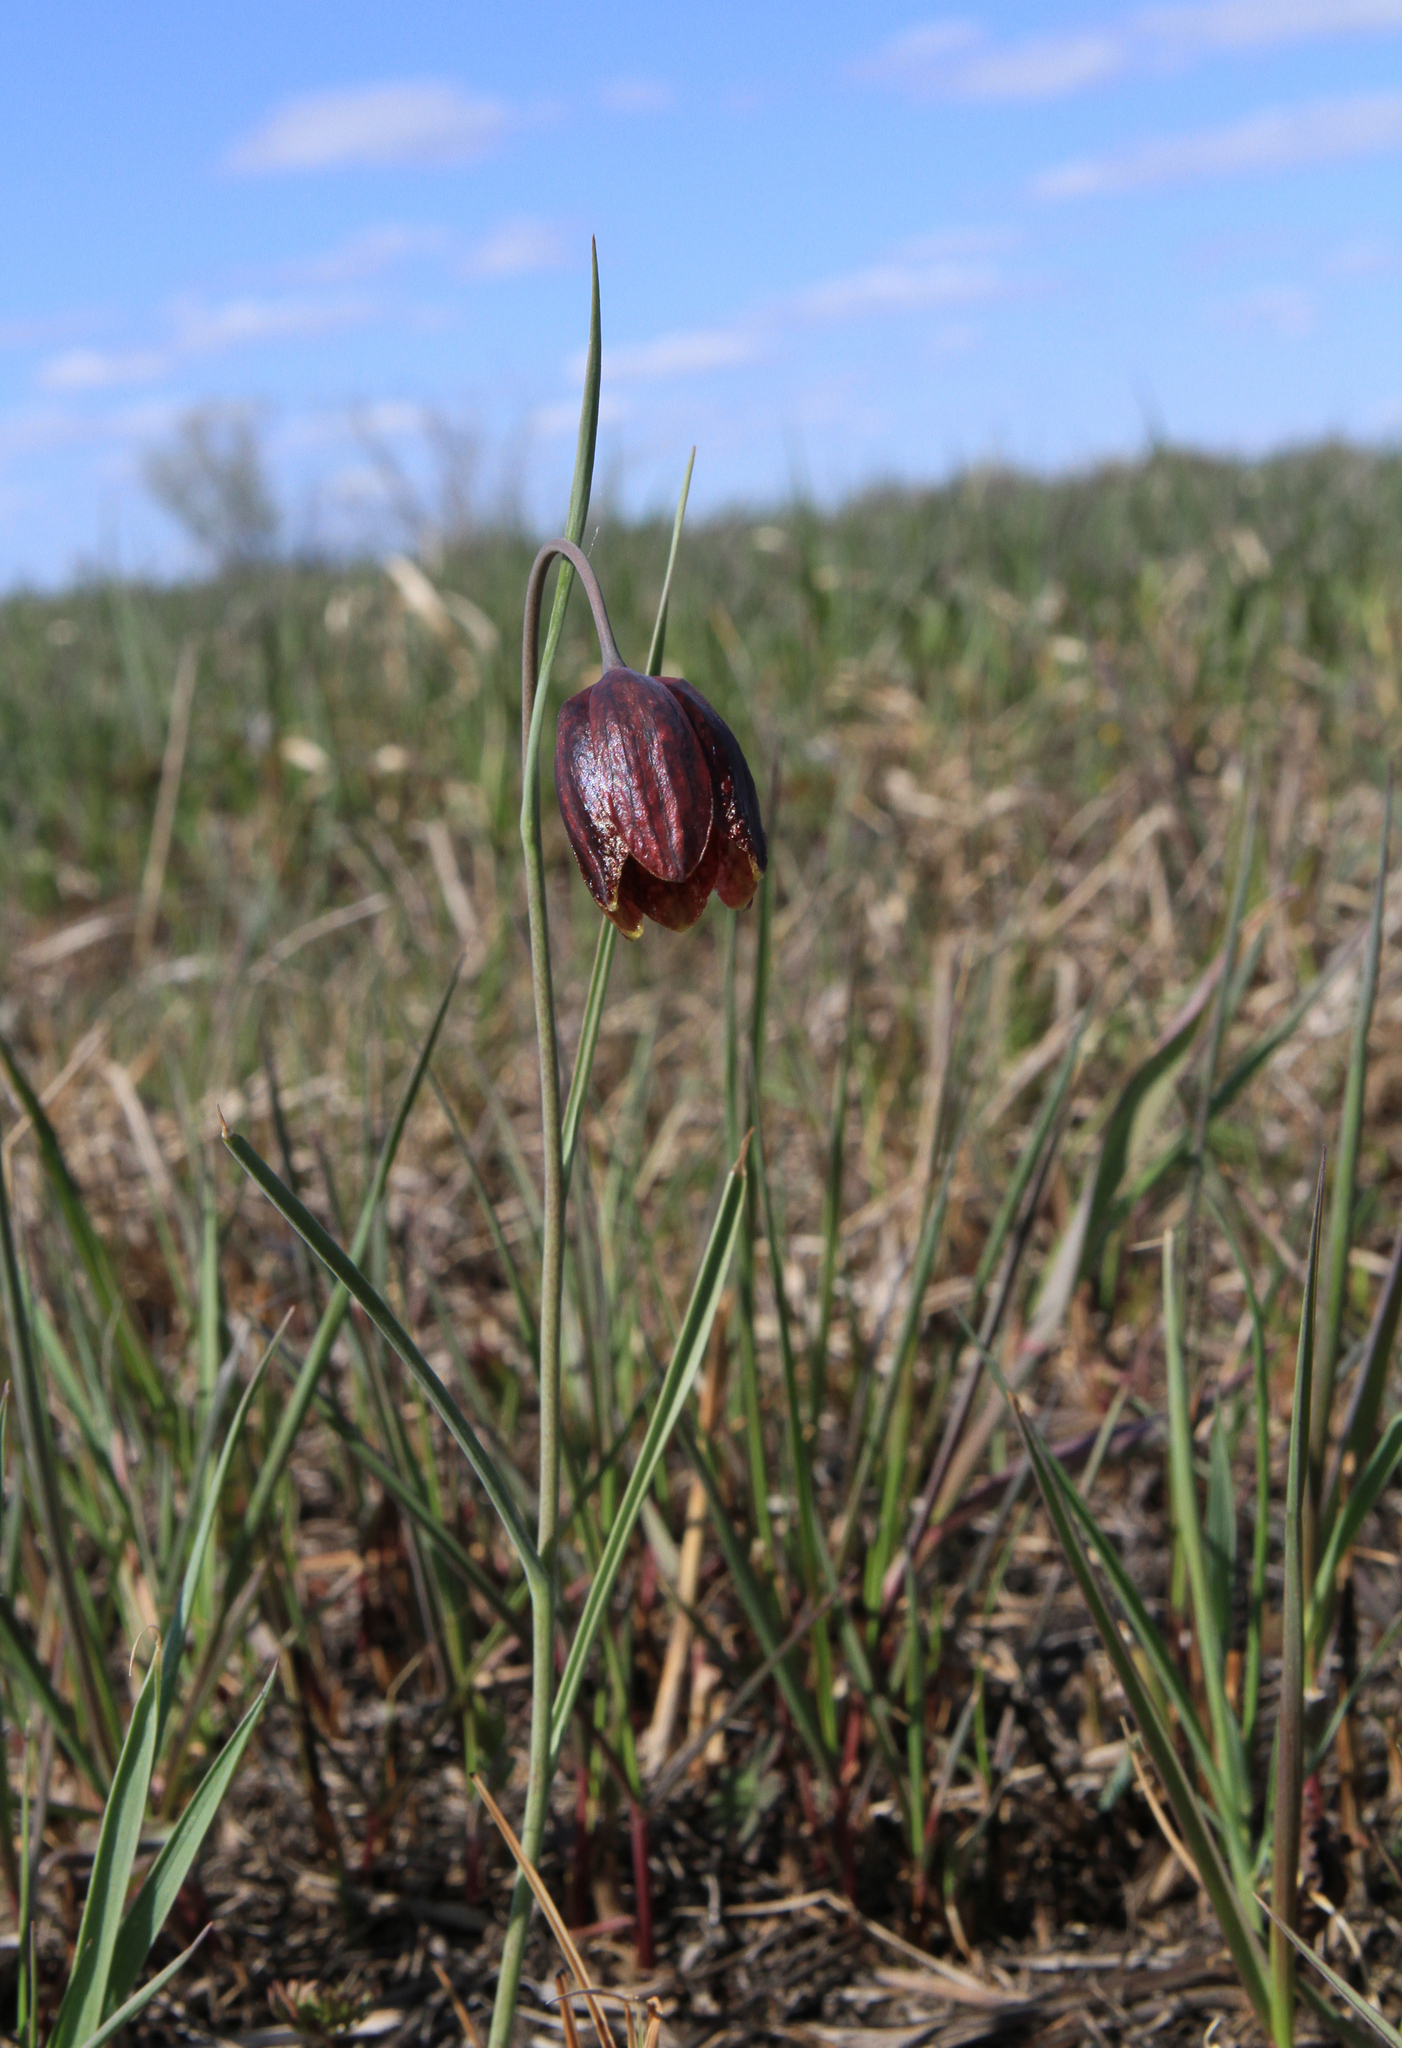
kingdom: Plantae
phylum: Tracheophyta
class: Liliopsida
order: Liliales
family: Liliaceae
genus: Fritillaria
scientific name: Fritillaria meleagroides
